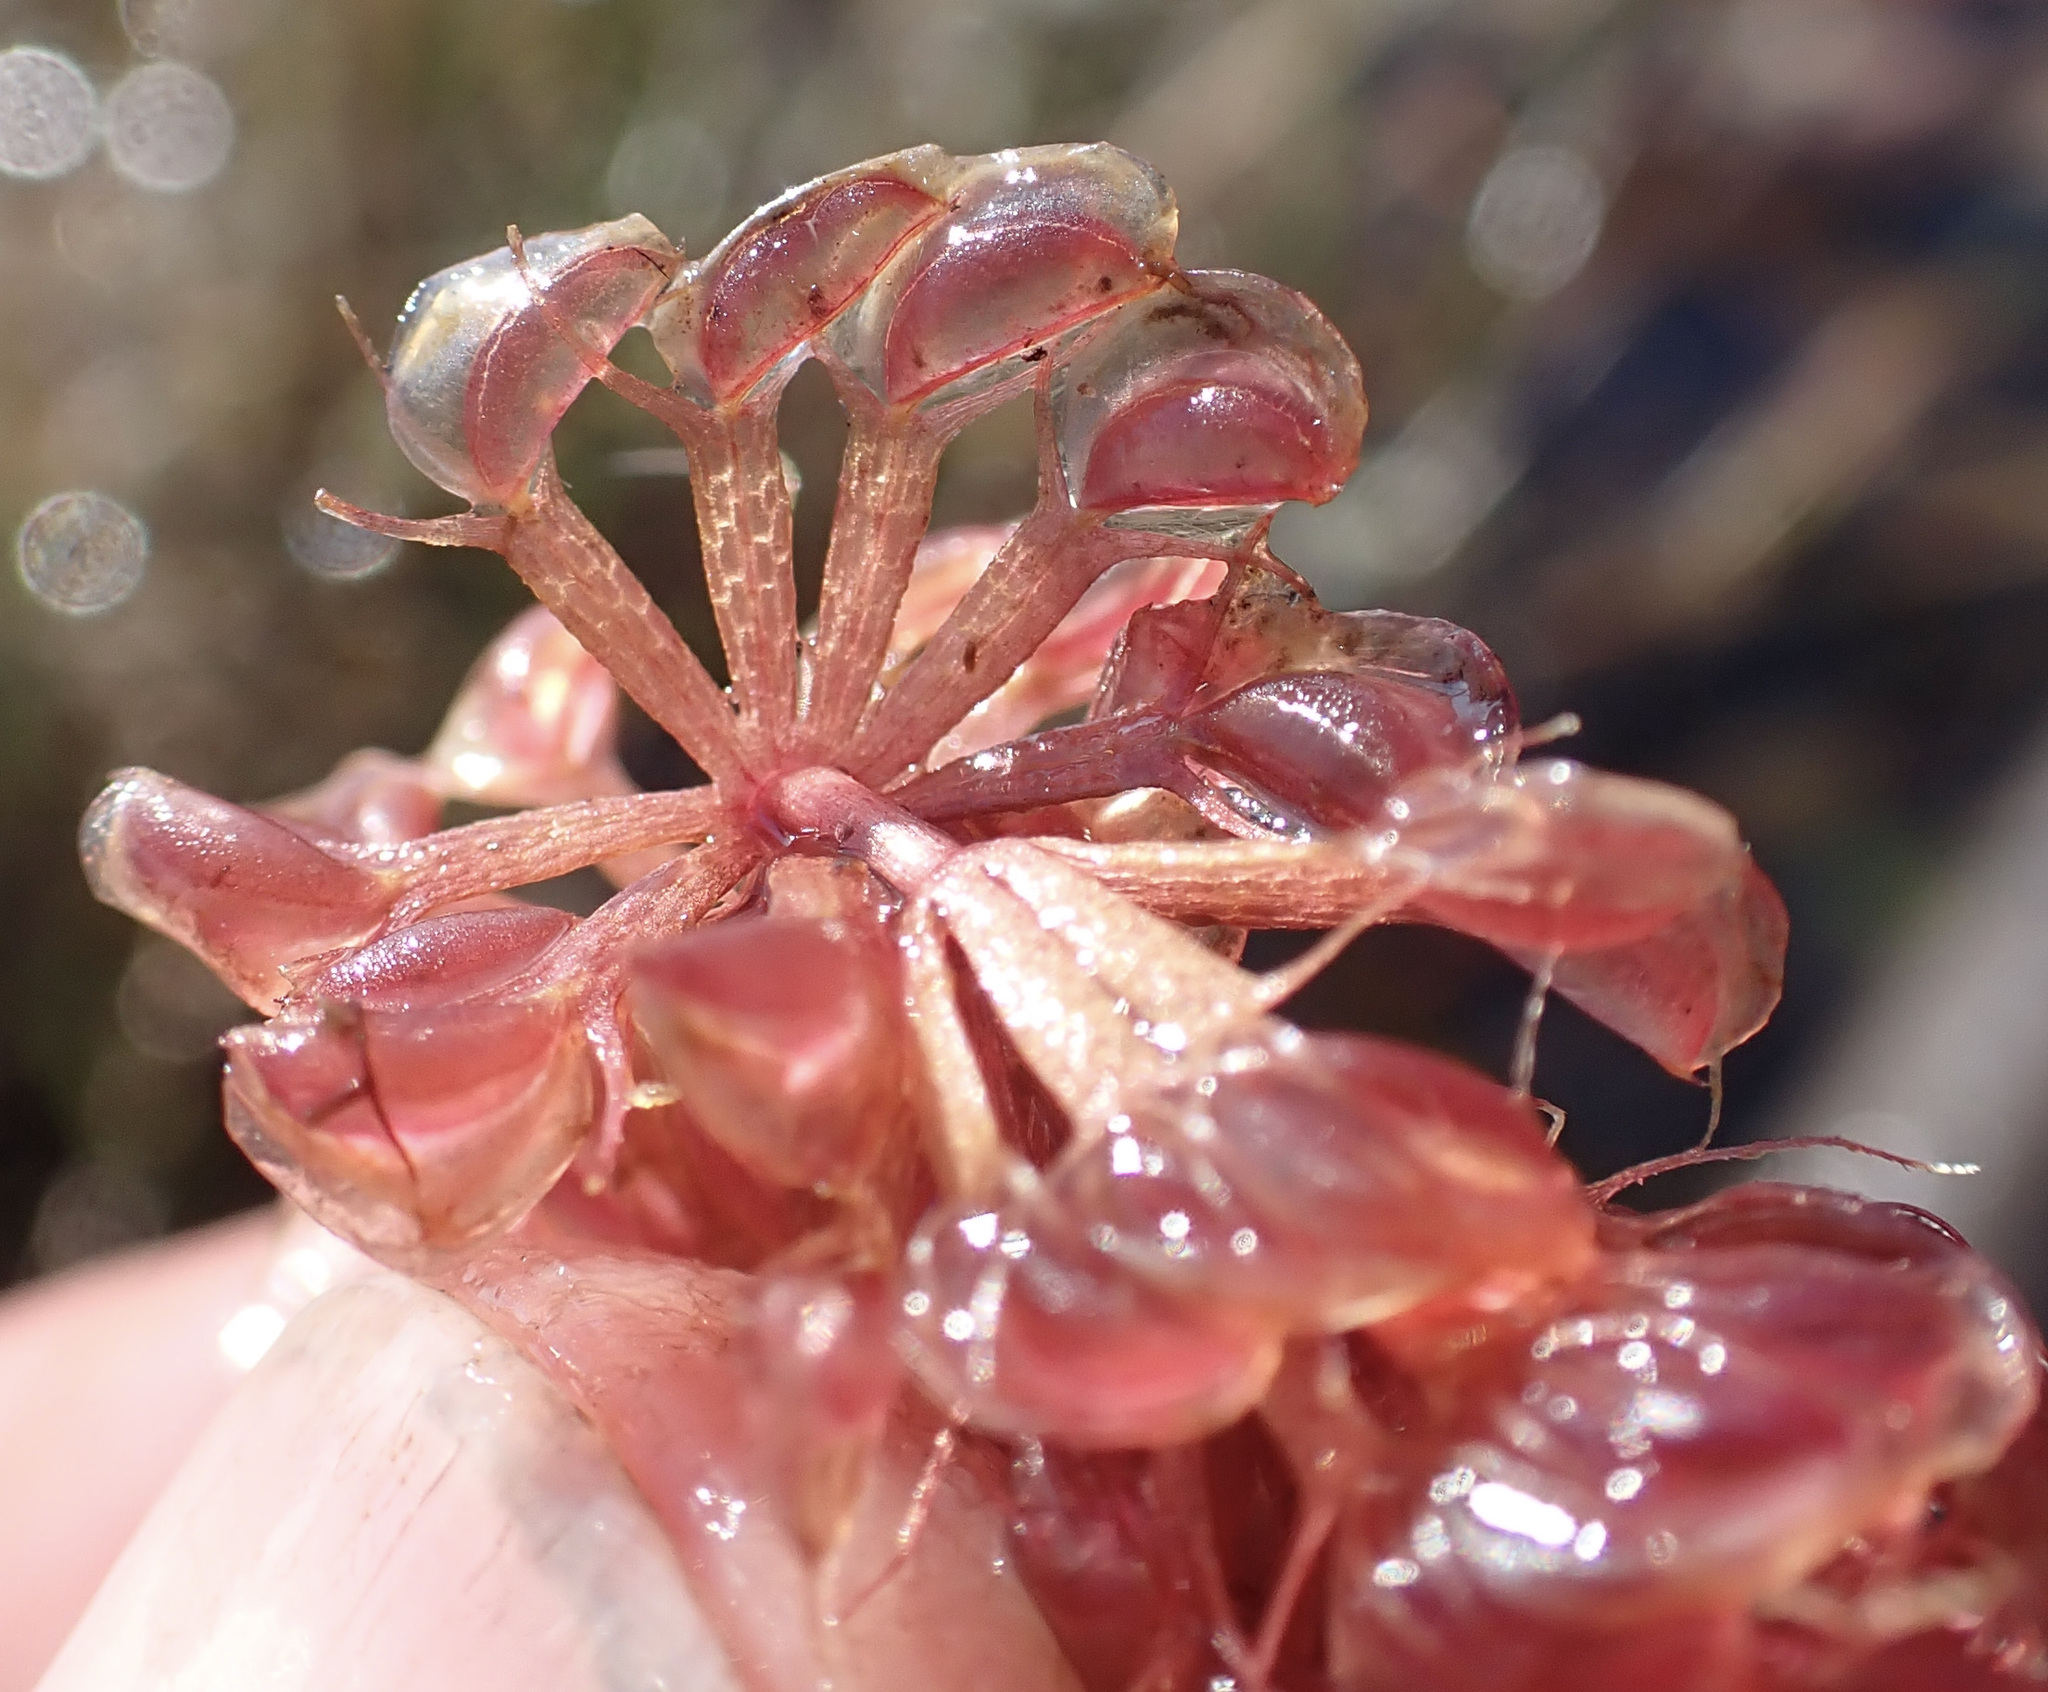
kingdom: Plantae
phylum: Tracheophyta
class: Magnoliopsida
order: Caryophyllales
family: Droseraceae
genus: Aldrovanda
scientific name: Aldrovanda vesiculosa
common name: Waterwheel plant
